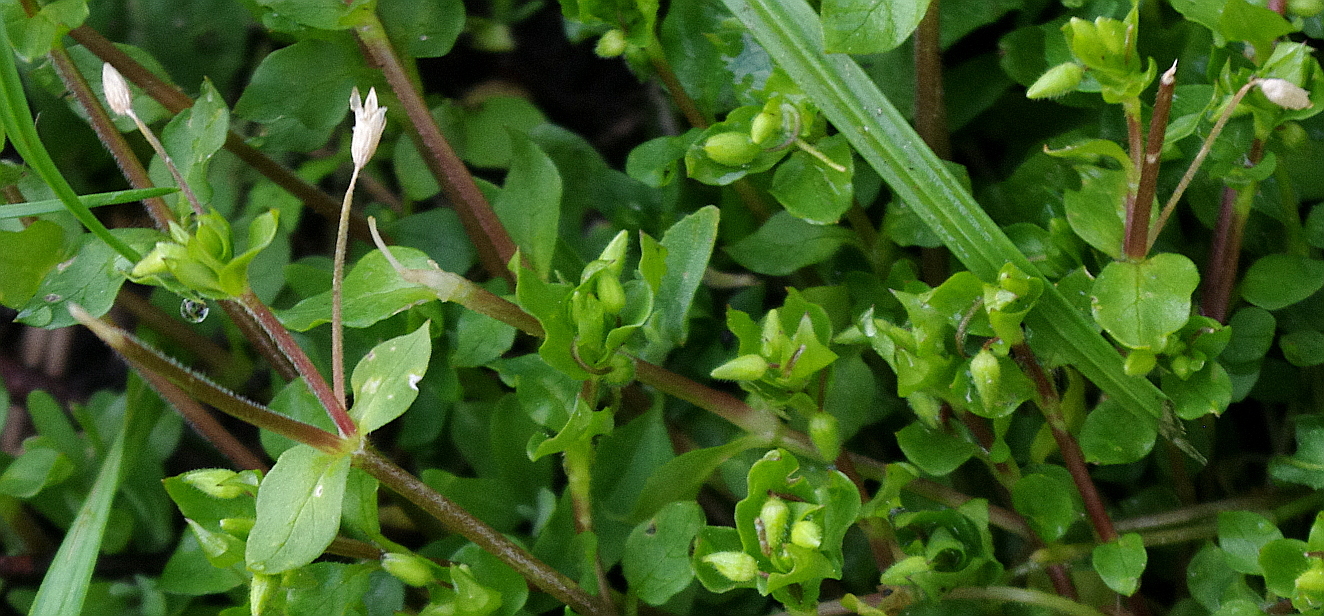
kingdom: Plantae
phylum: Tracheophyta
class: Magnoliopsida
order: Caryophyllales
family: Caryophyllaceae
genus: Stellaria
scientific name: Stellaria media
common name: Common chickweed
